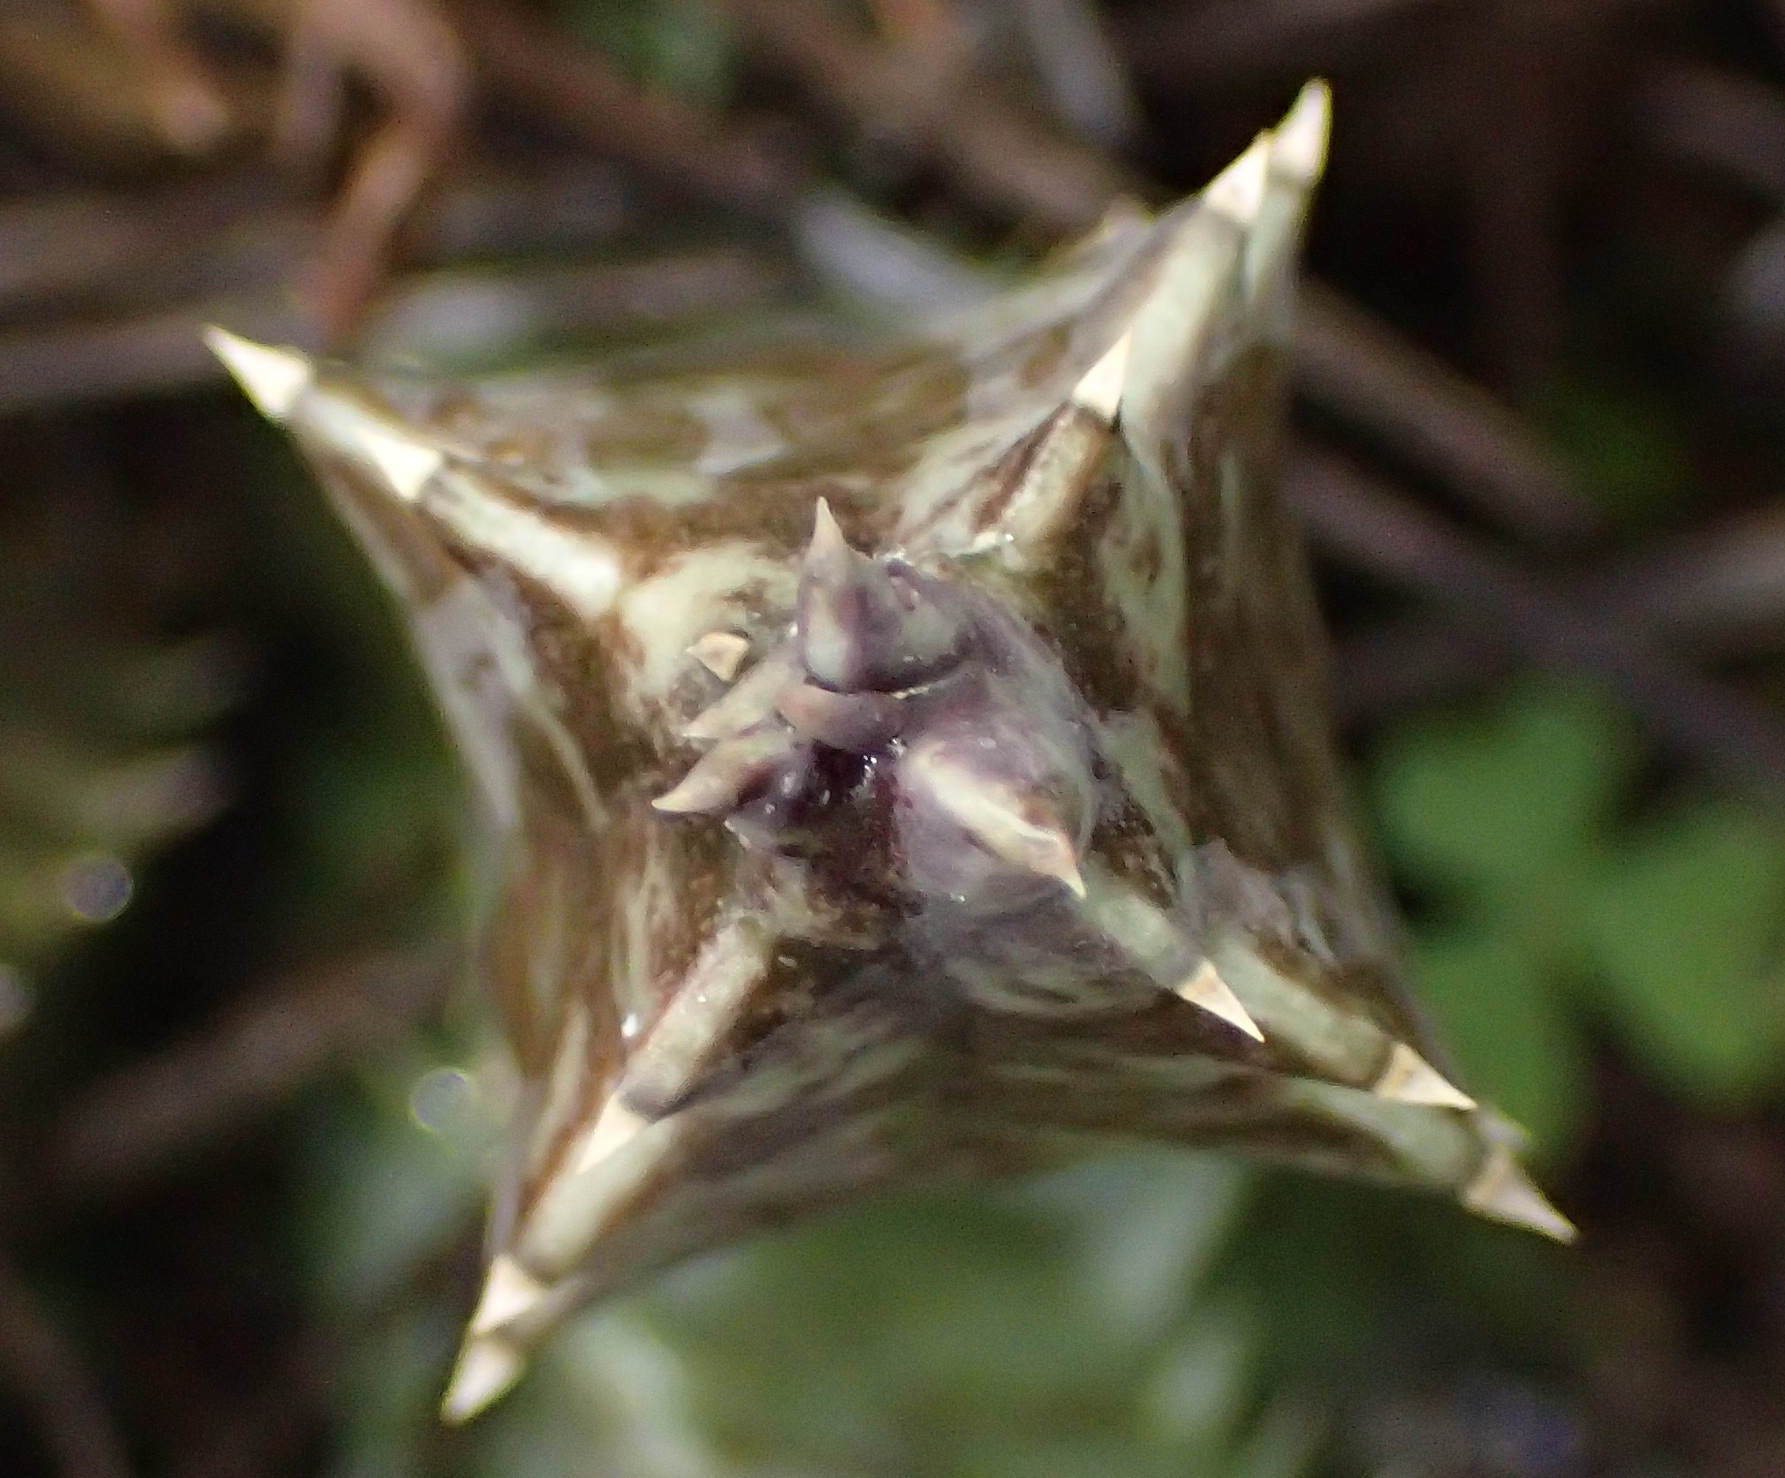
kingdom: Plantae
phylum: Tracheophyta
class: Magnoliopsida
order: Gentianales
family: Apocynaceae
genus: Ceropegia
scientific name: Ceropegia praestans
